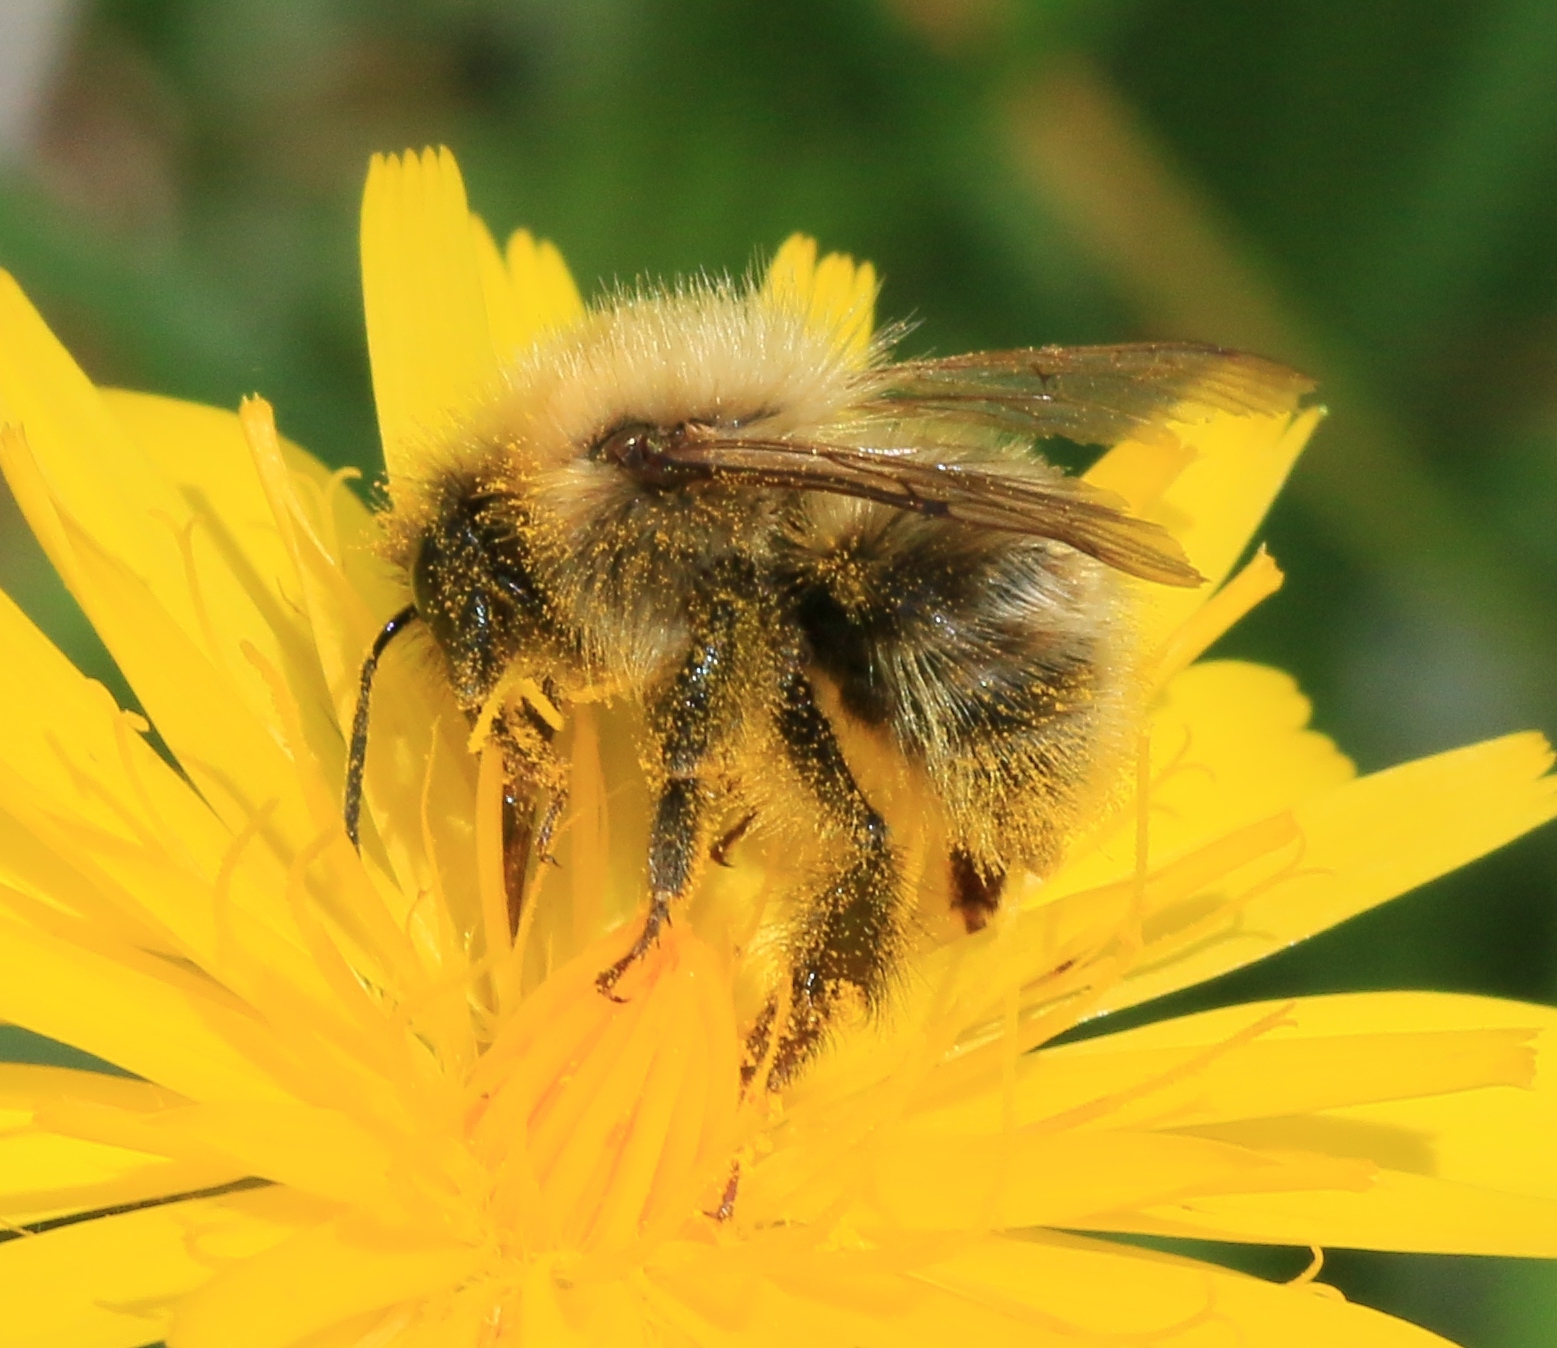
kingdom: Animalia
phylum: Arthropoda
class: Insecta
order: Hymenoptera
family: Apidae
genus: Bombus
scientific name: Bombus pascuorum
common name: Common carder bee
